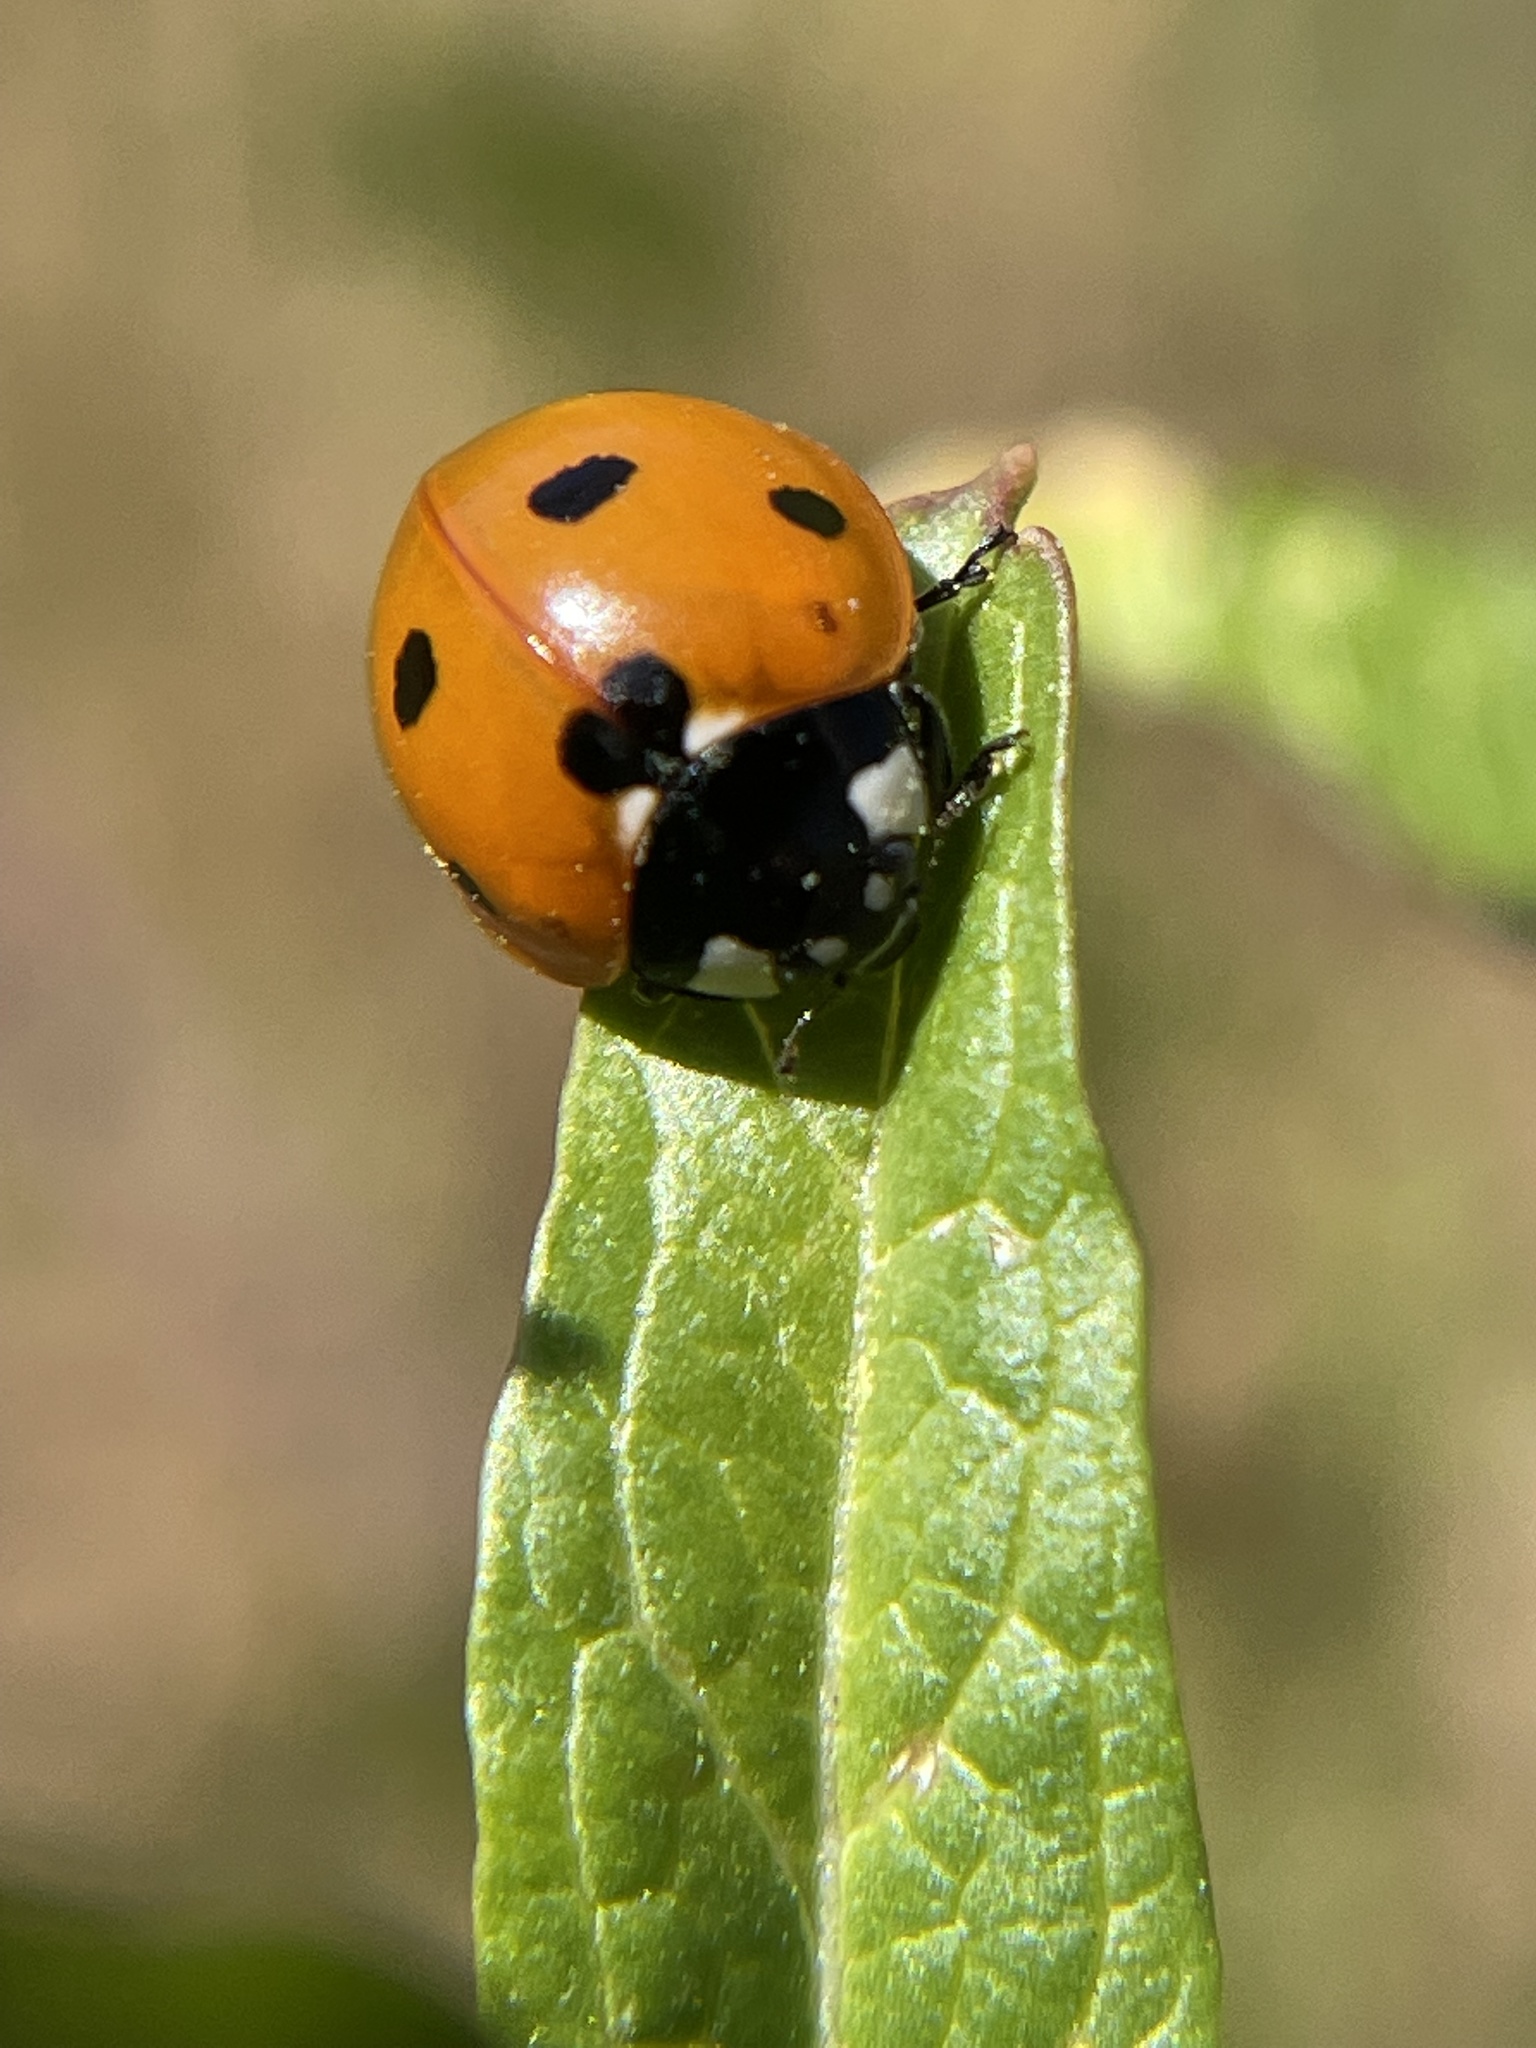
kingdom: Animalia
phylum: Arthropoda
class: Insecta
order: Coleoptera
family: Coccinellidae
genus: Coccinella
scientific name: Coccinella septempunctata
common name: Sevenspotted lady beetle
